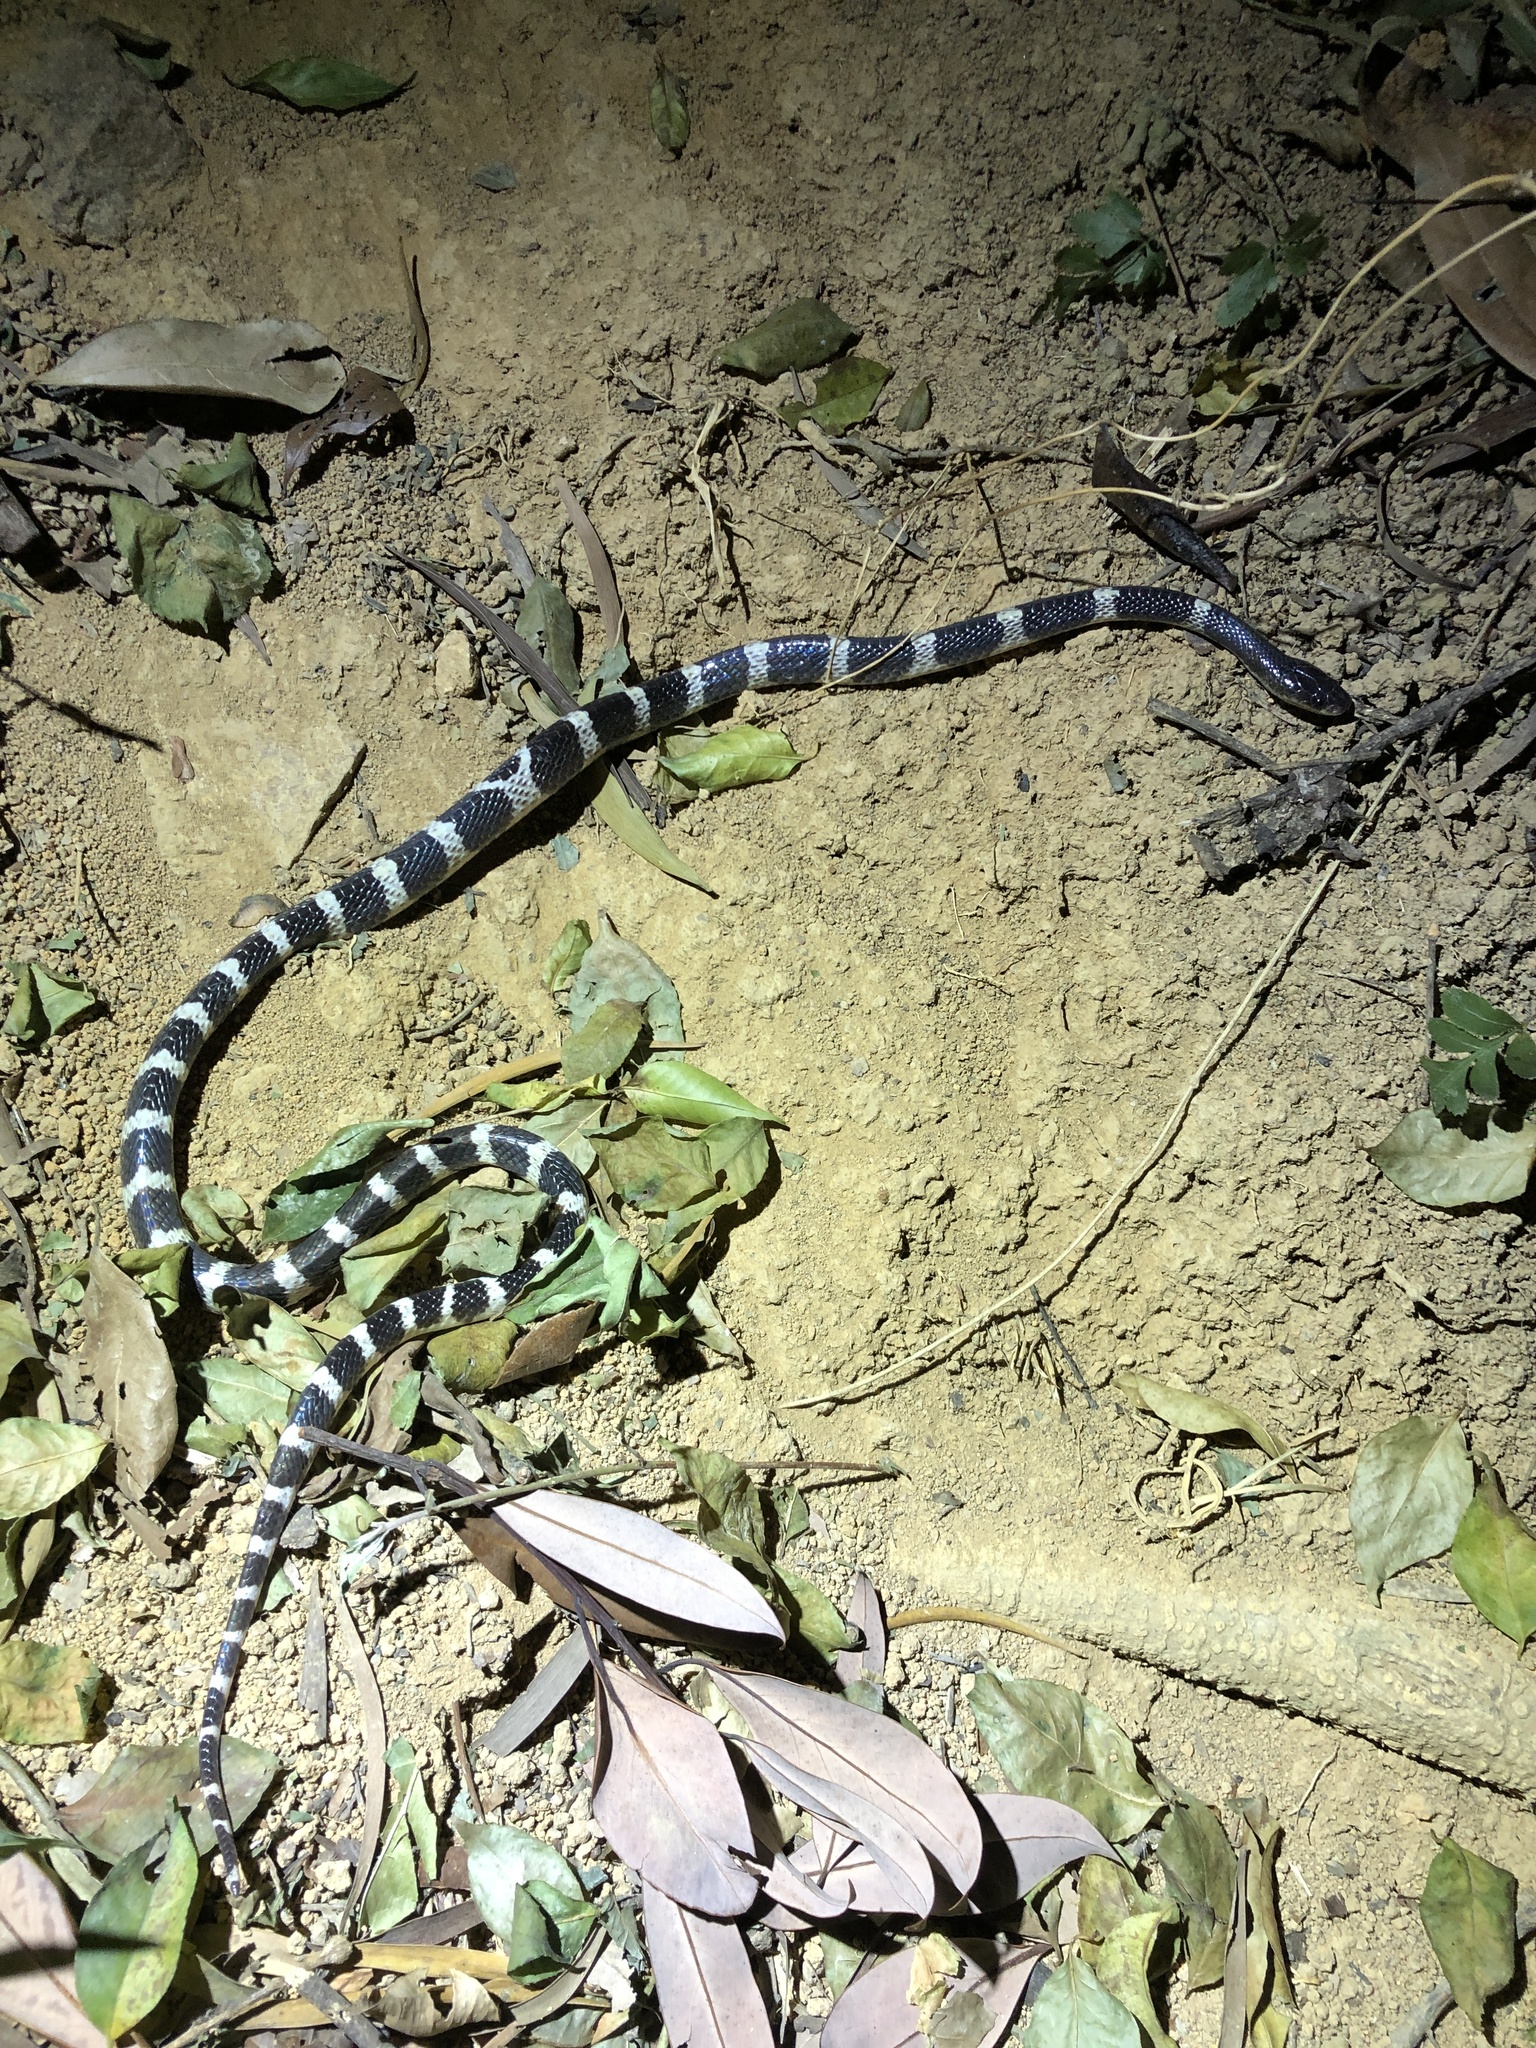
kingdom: Animalia
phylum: Chordata
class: Squamata
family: Elapidae
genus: Bungarus
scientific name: Bungarus multicinctus
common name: Many-banded krait
